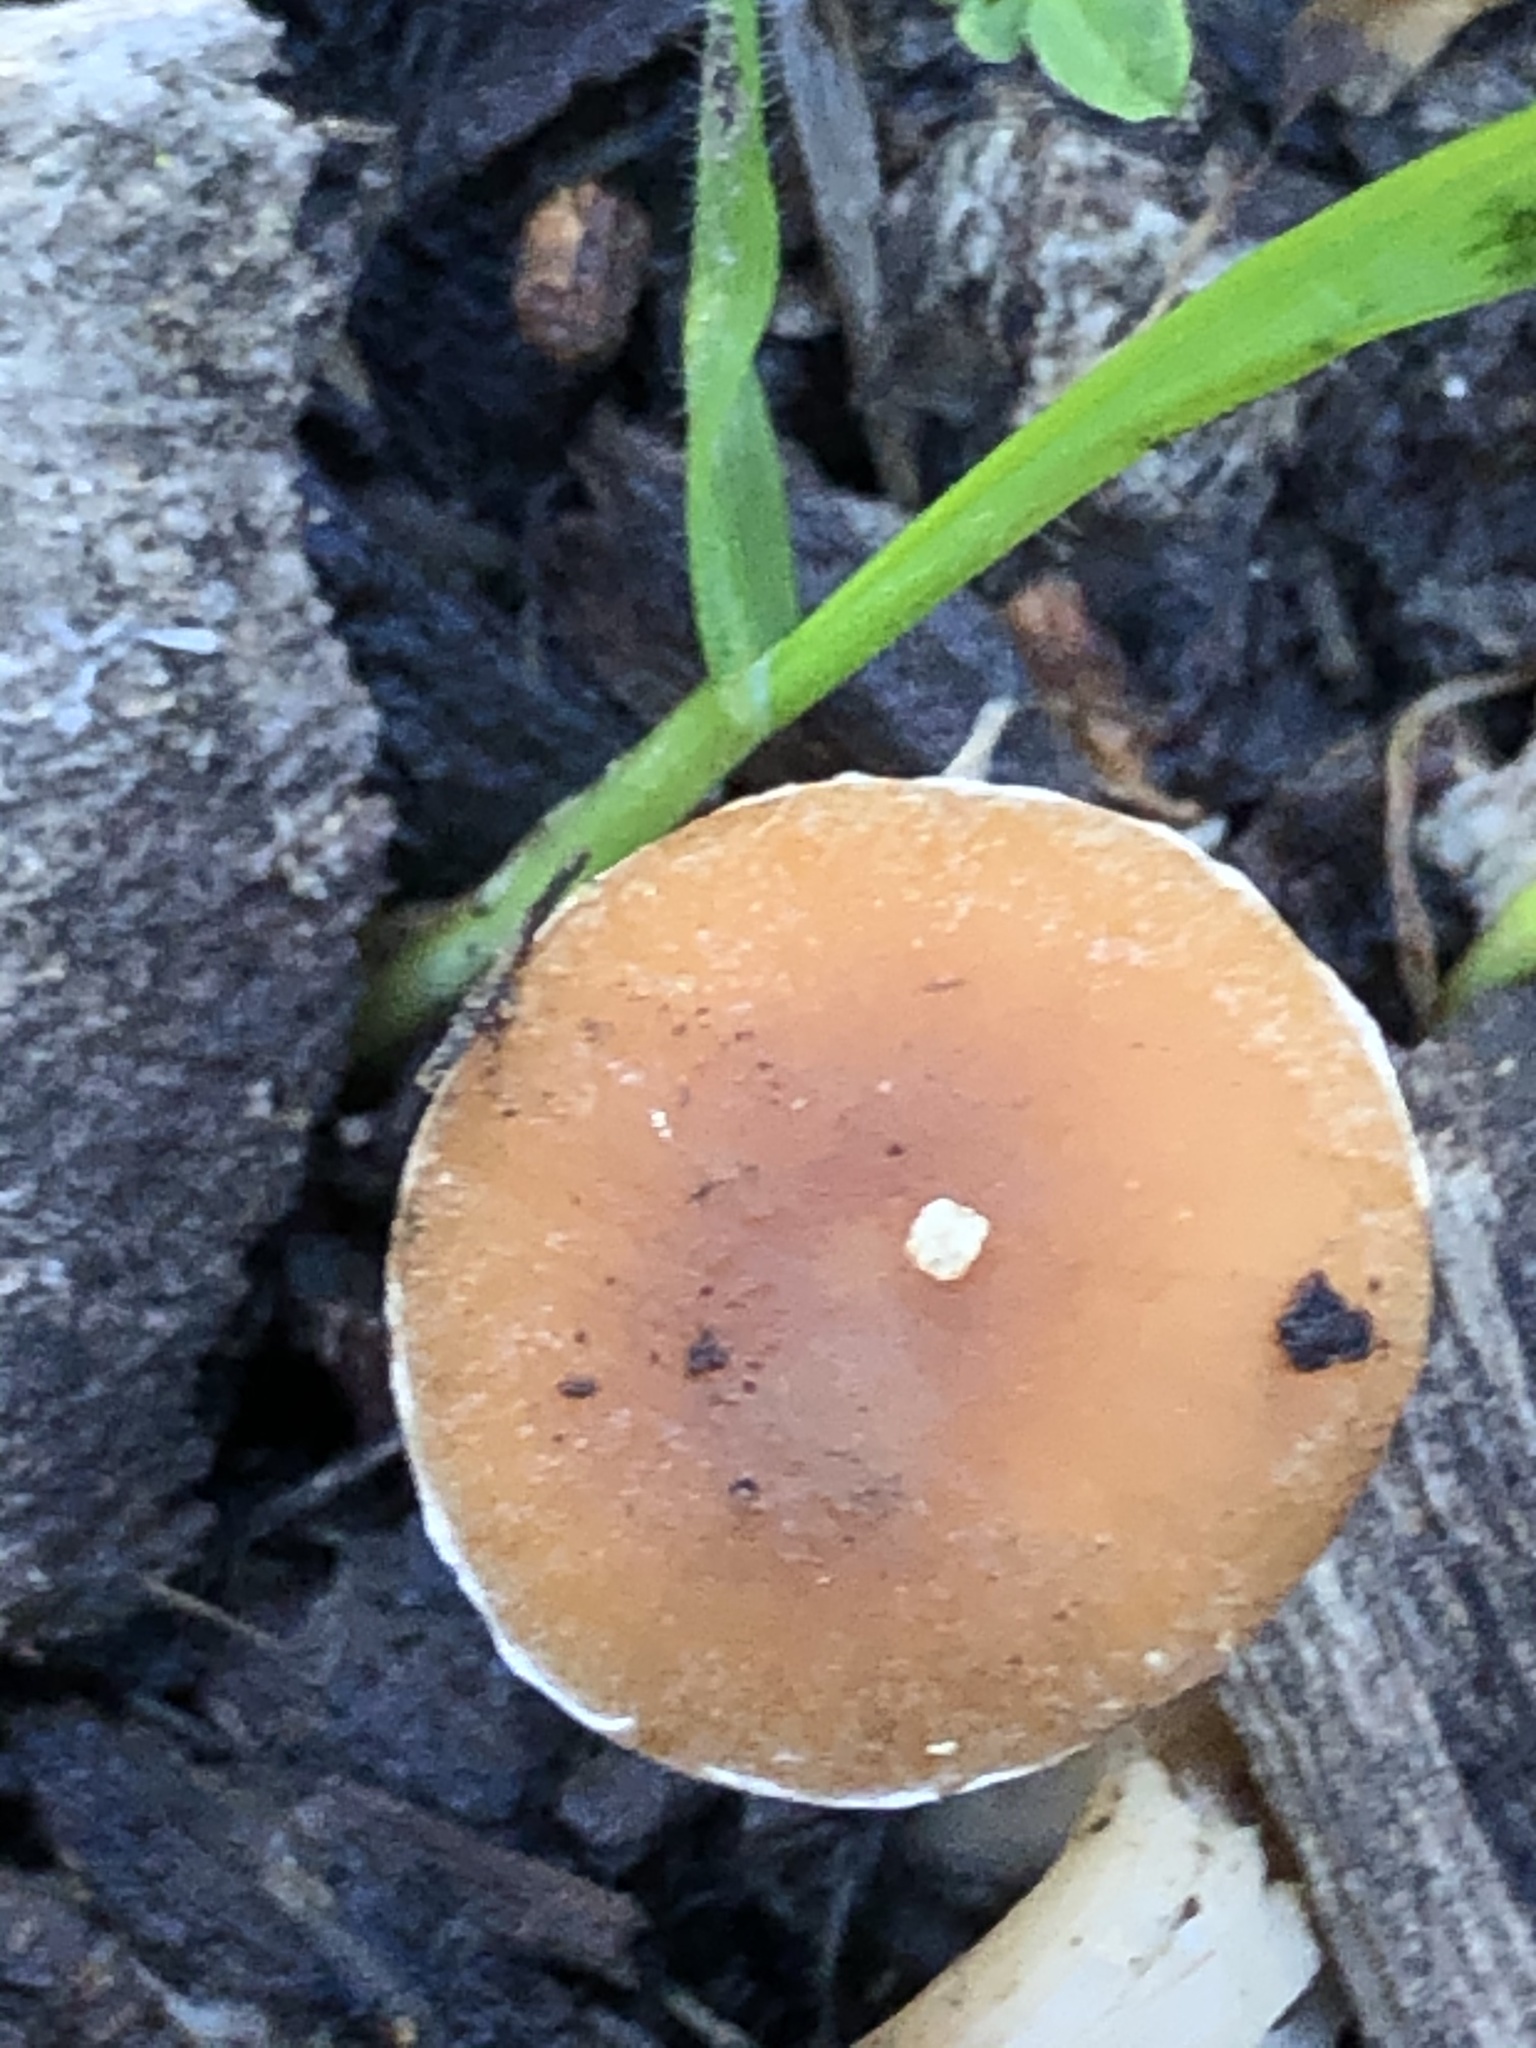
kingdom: Fungi
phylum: Basidiomycota
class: Agaricomycetes
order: Agaricales
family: Tubariaceae
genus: Tubaria
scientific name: Tubaria furfuracea
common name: Scurfy twiglet
